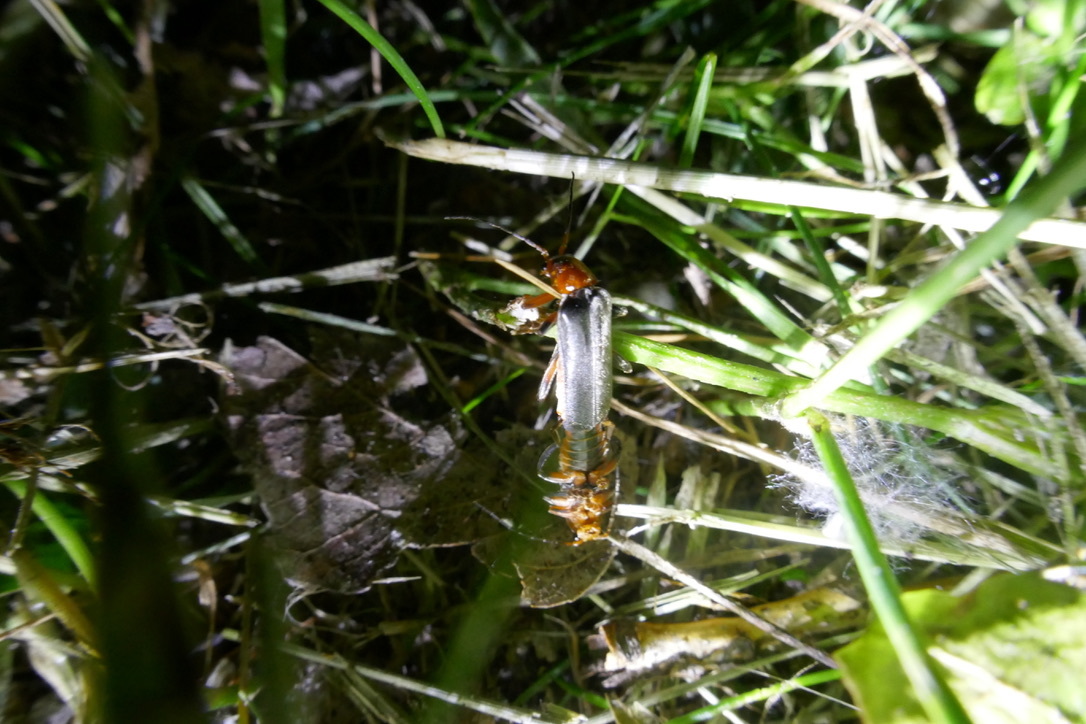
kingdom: Animalia
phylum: Arthropoda
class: Insecta
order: Coleoptera
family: Cantharidae
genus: Cantharis
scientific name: Cantharis livida
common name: Livid soldier beetle
